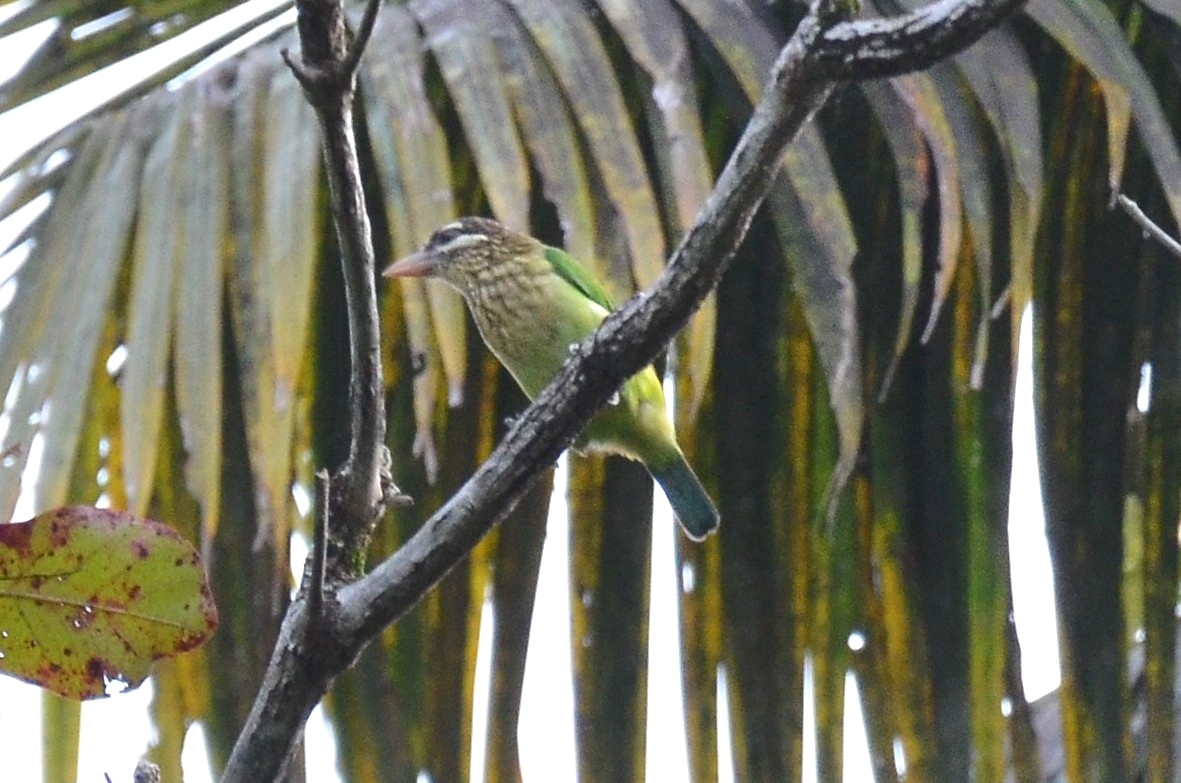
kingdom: Animalia
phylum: Chordata
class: Aves
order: Piciformes
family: Megalaimidae
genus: Psilopogon
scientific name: Psilopogon viridis
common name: White-cheeked barbet
